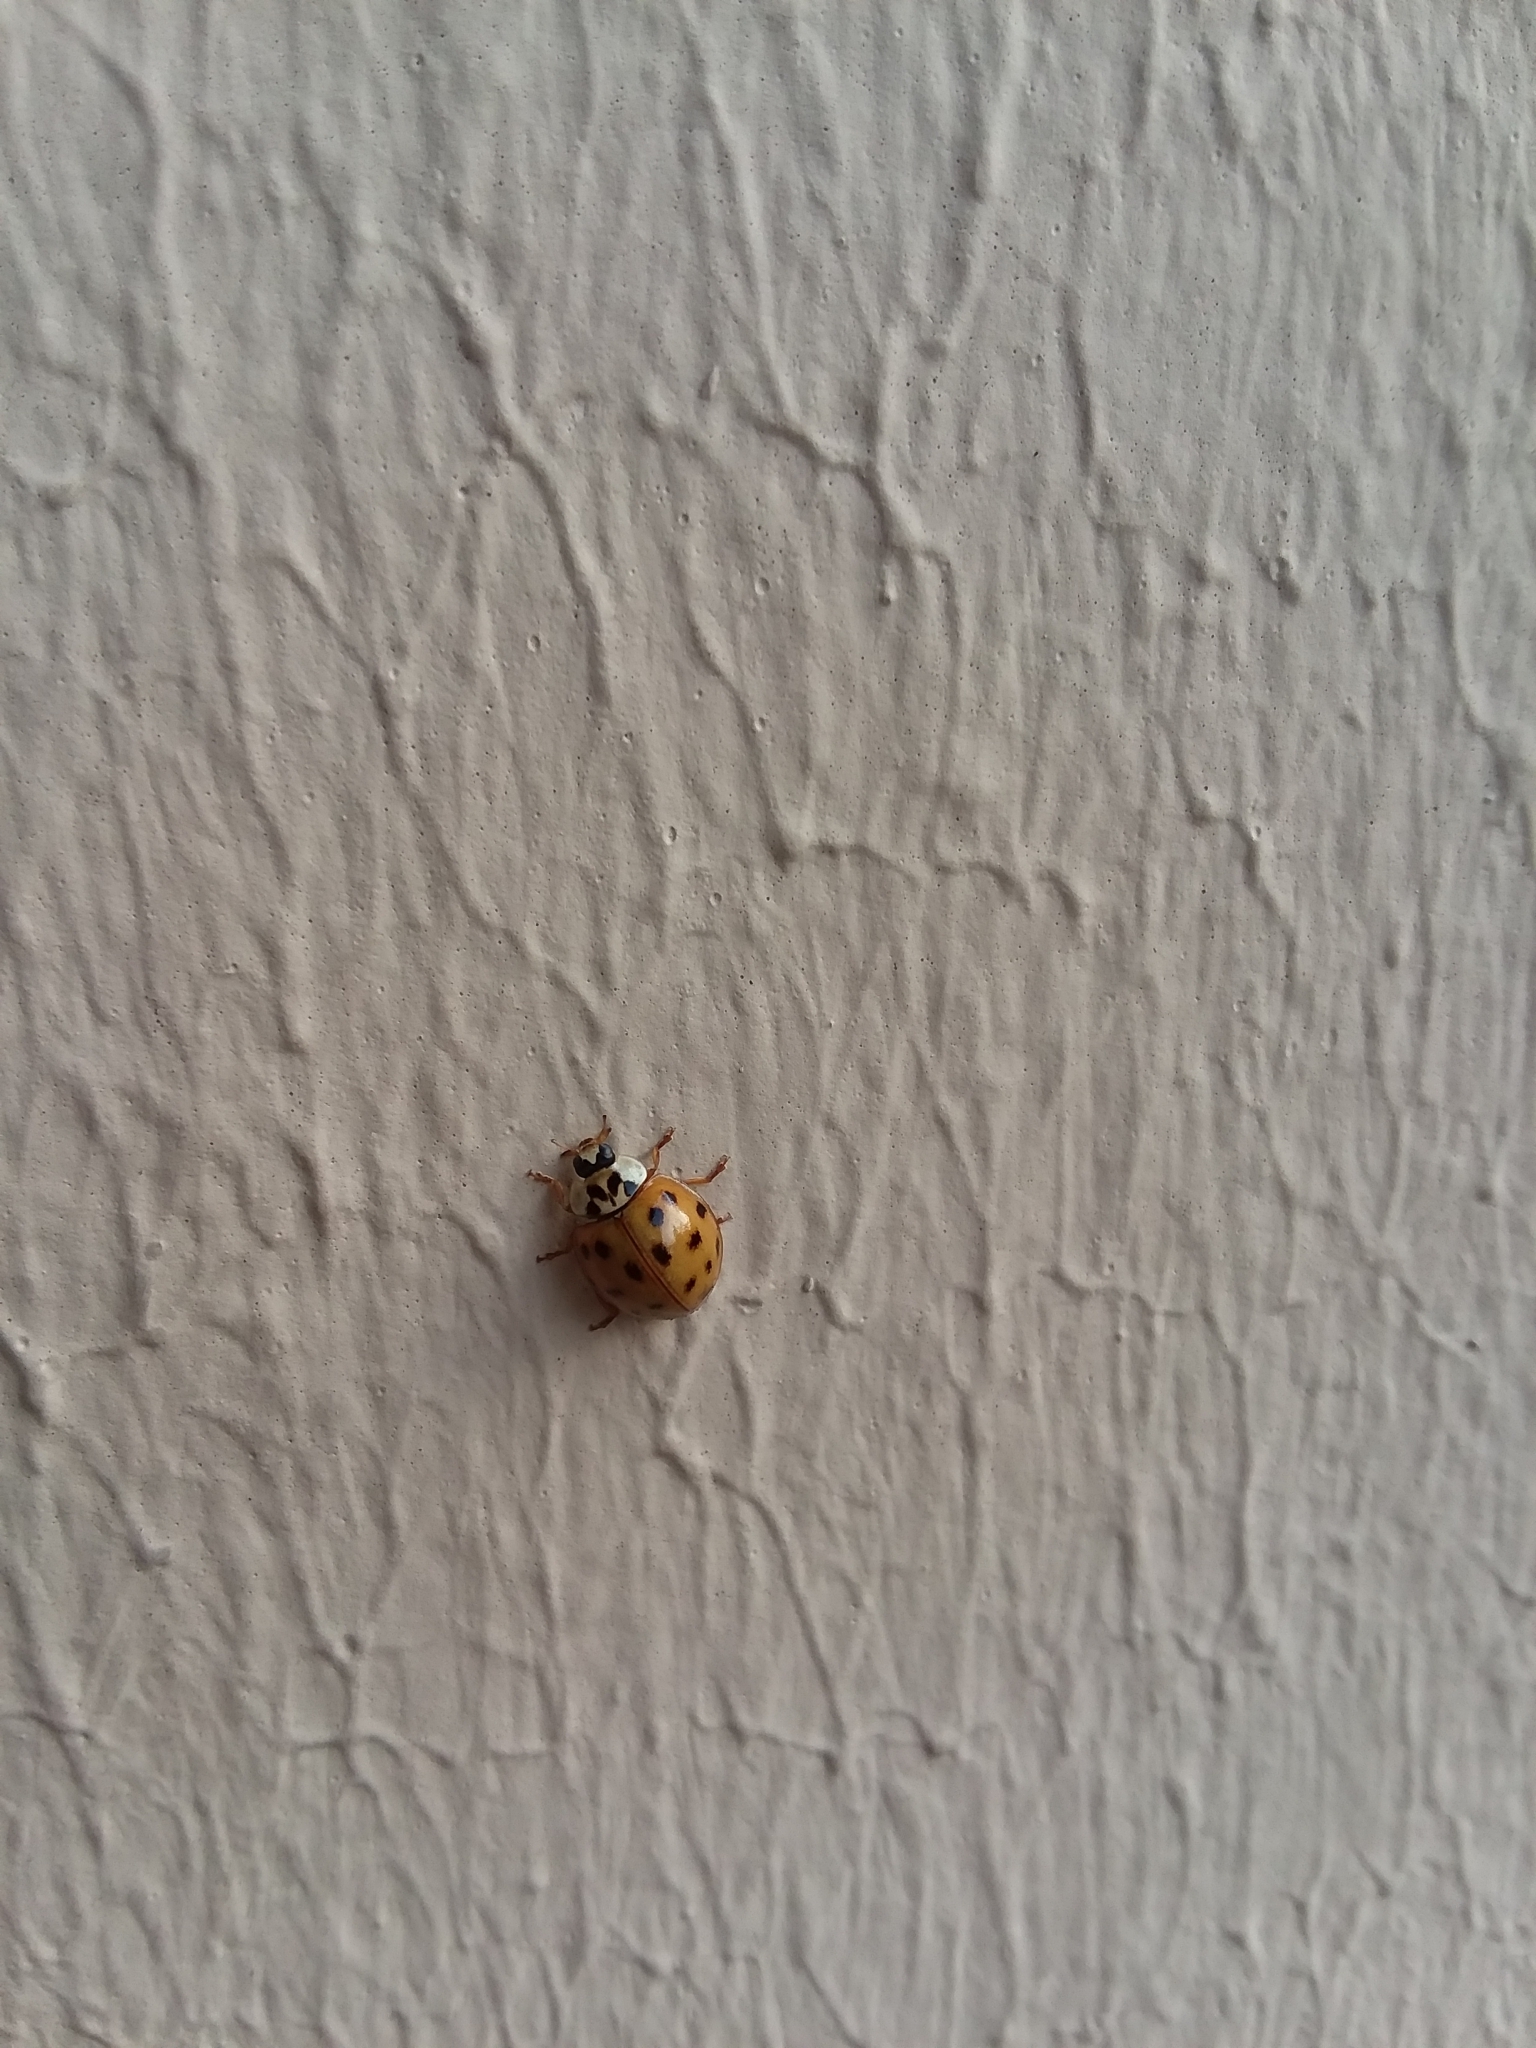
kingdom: Animalia
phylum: Arthropoda
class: Insecta
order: Coleoptera
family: Coccinellidae
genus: Harmonia
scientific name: Harmonia axyridis
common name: Harlequin ladybird
